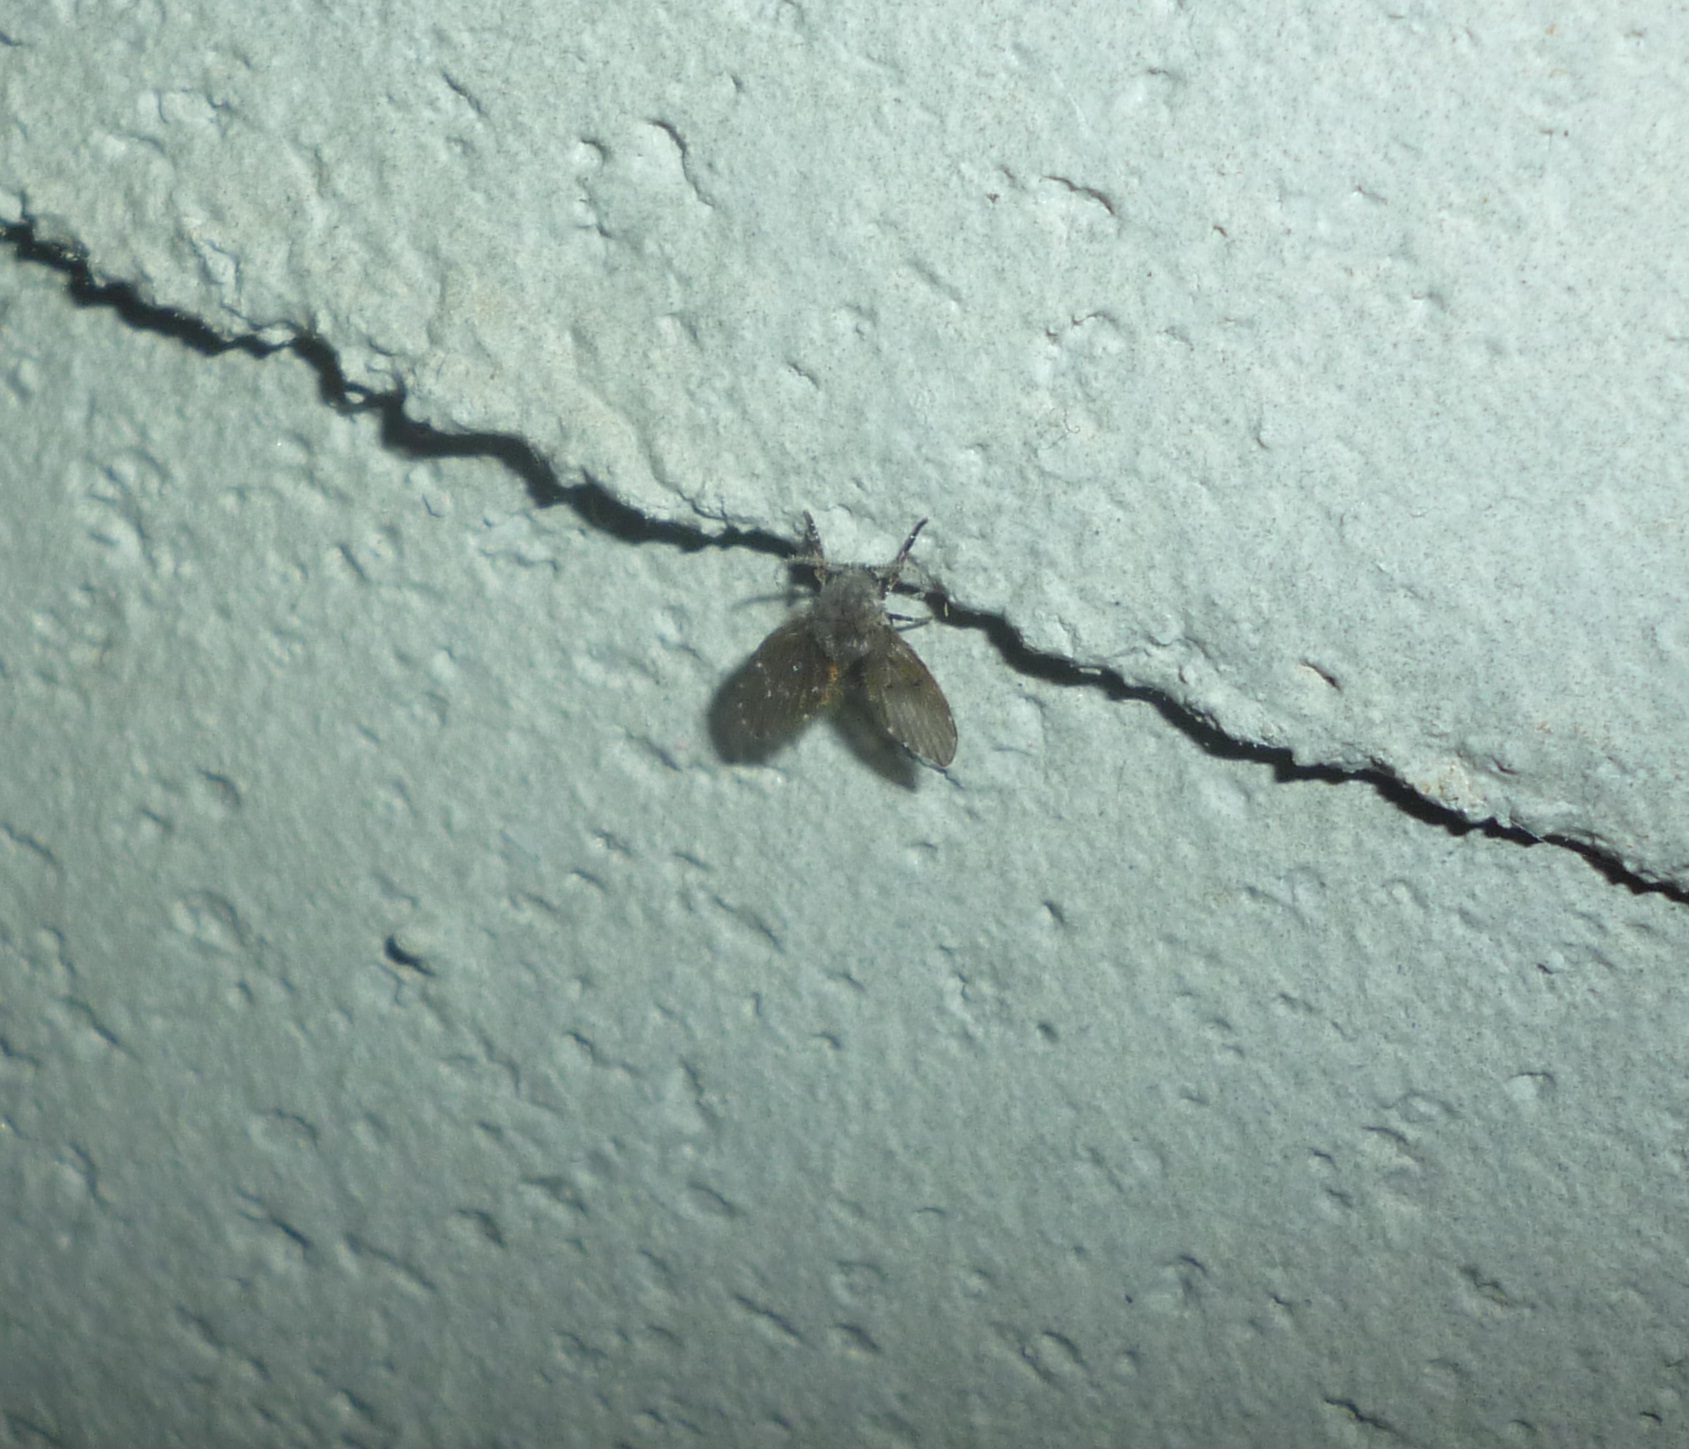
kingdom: Animalia
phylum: Arthropoda
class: Insecta
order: Diptera
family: Psychodidae
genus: Clogmia
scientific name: Clogmia albipunctatus
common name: White-spotted moth fly
